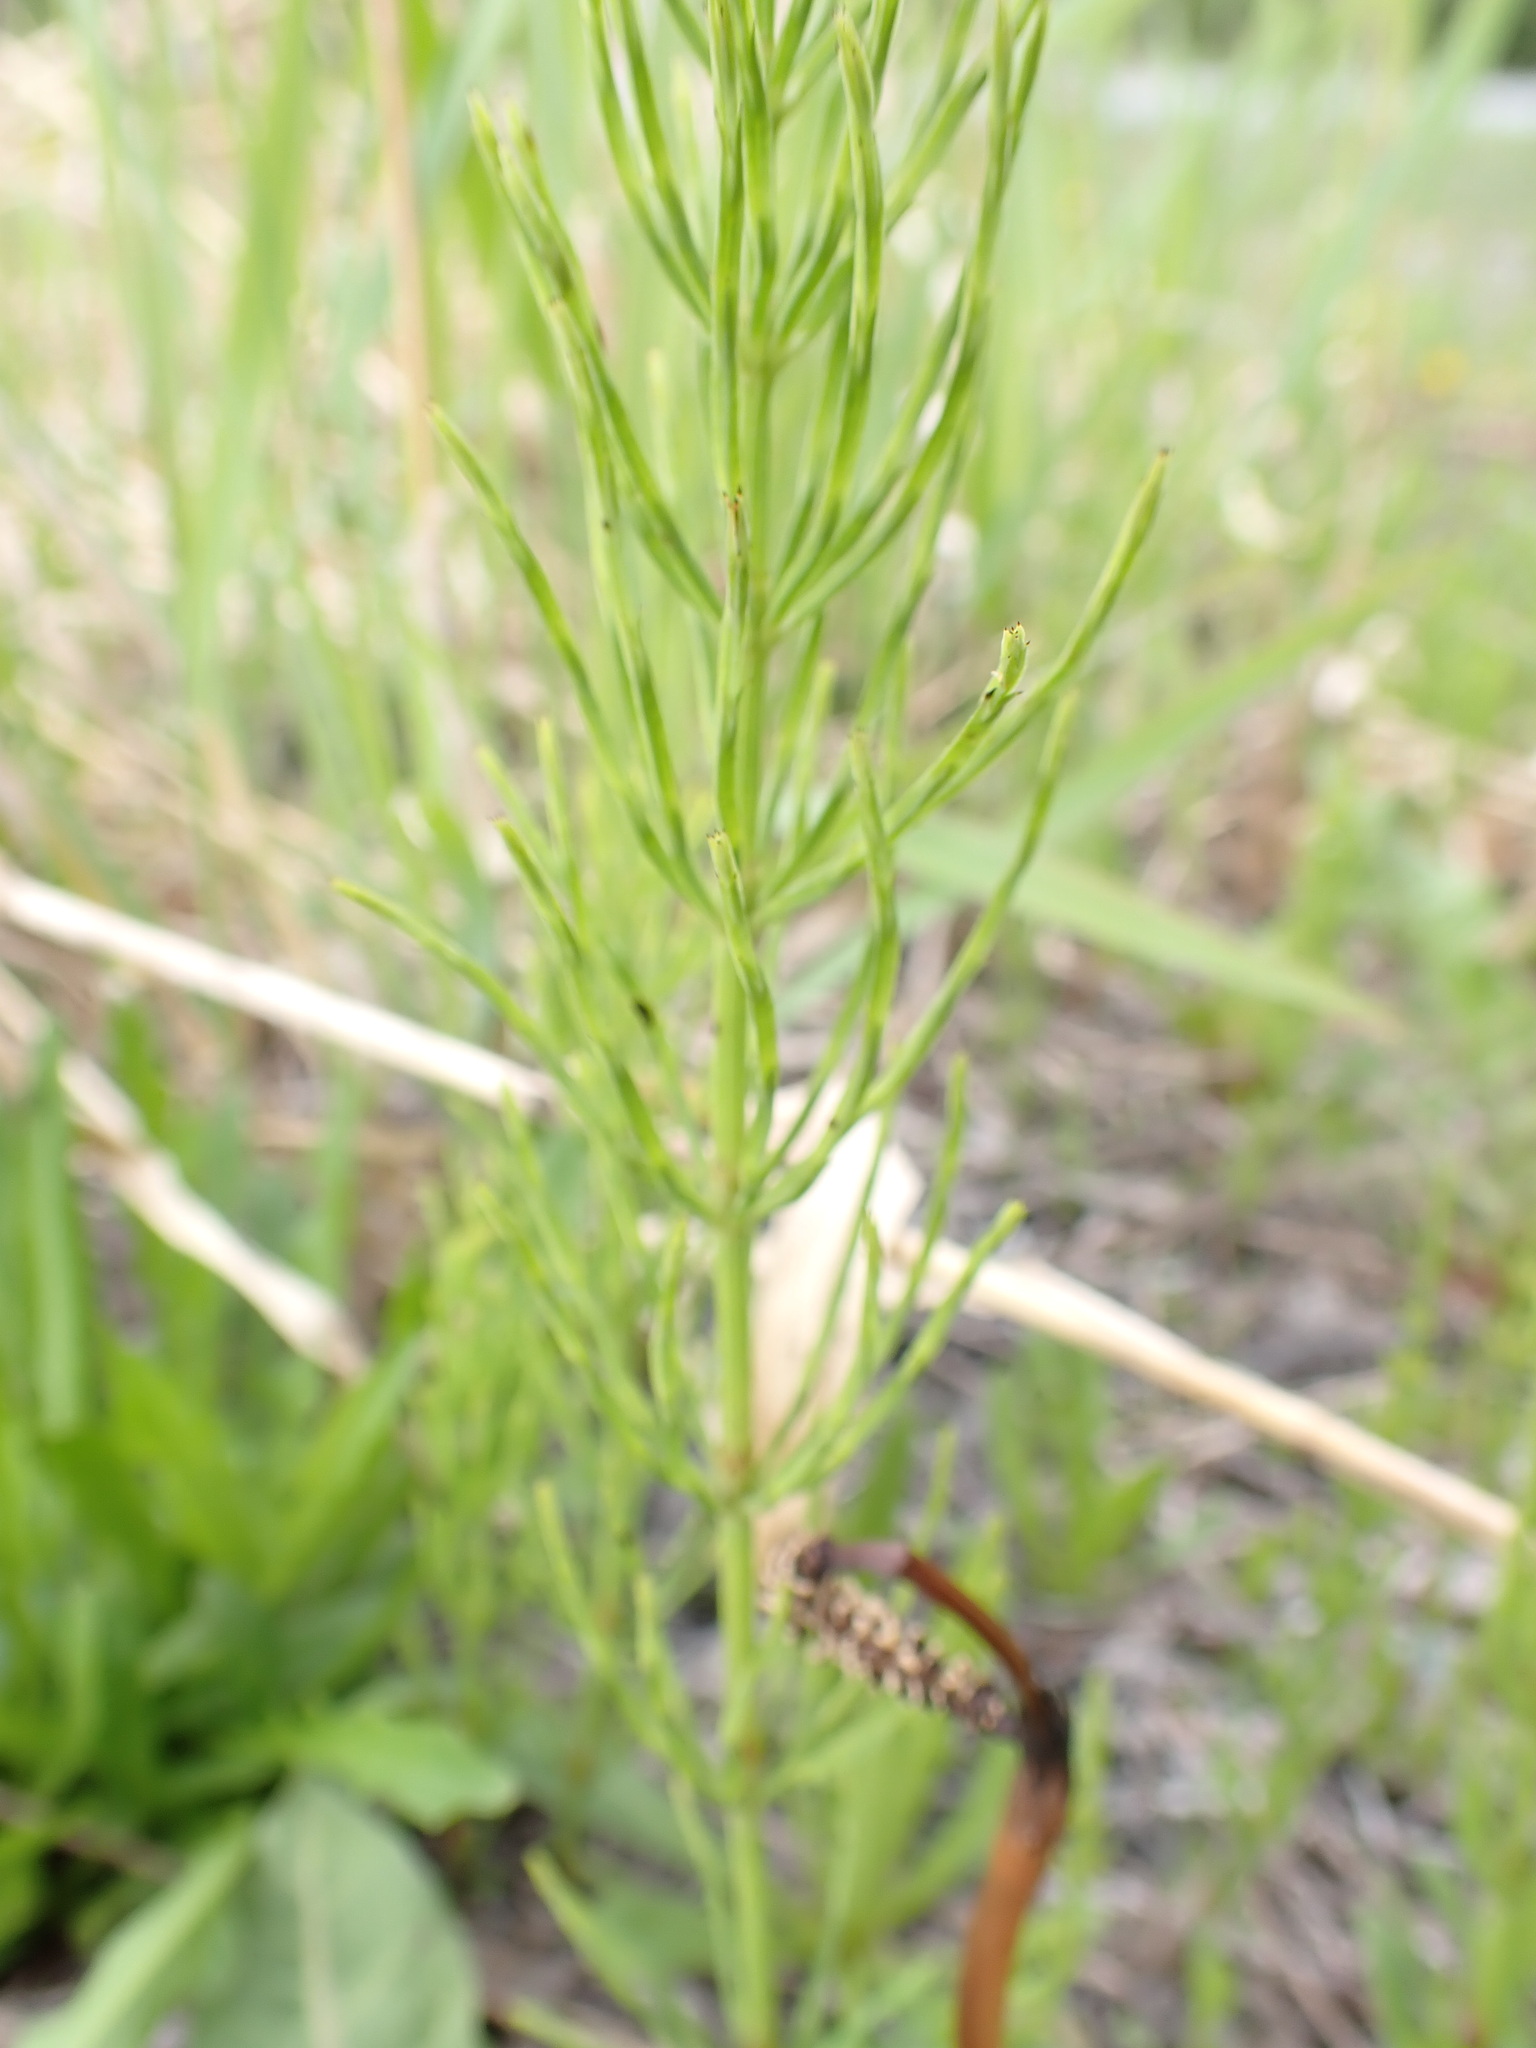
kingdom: Plantae
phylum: Tracheophyta
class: Polypodiopsida
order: Equisetales
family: Equisetaceae
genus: Equisetum
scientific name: Equisetum arvense
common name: Field horsetail
